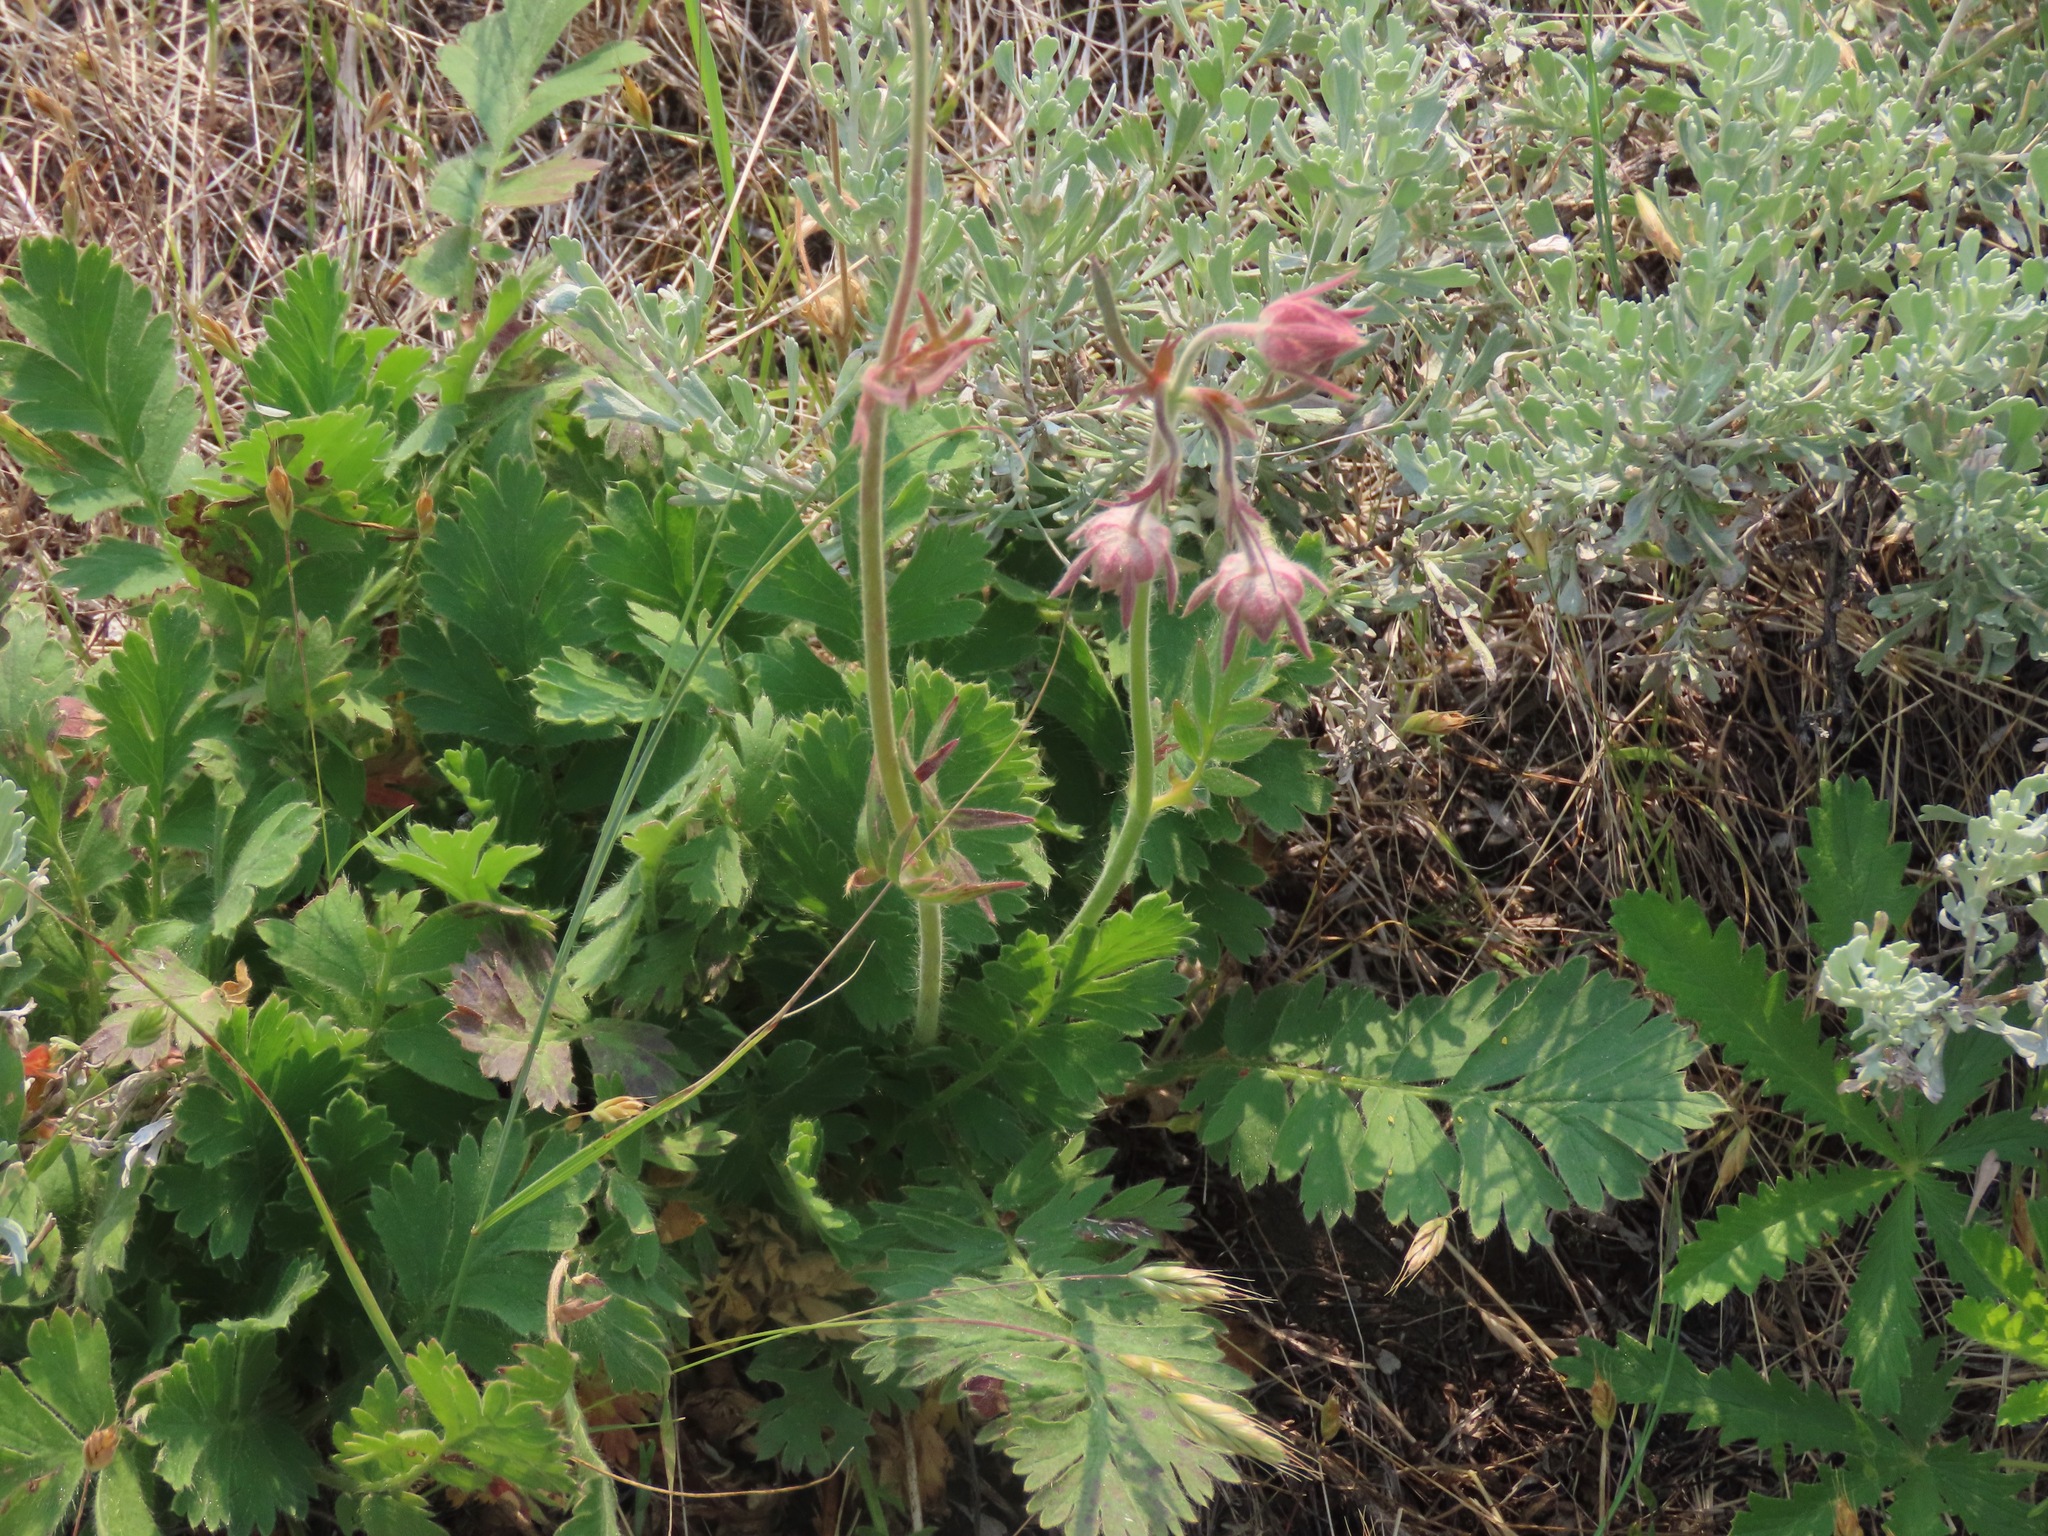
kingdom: Plantae
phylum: Tracheophyta
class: Magnoliopsida
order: Rosales
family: Rosaceae
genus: Geum
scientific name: Geum triflorum
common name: Old man's whiskers
